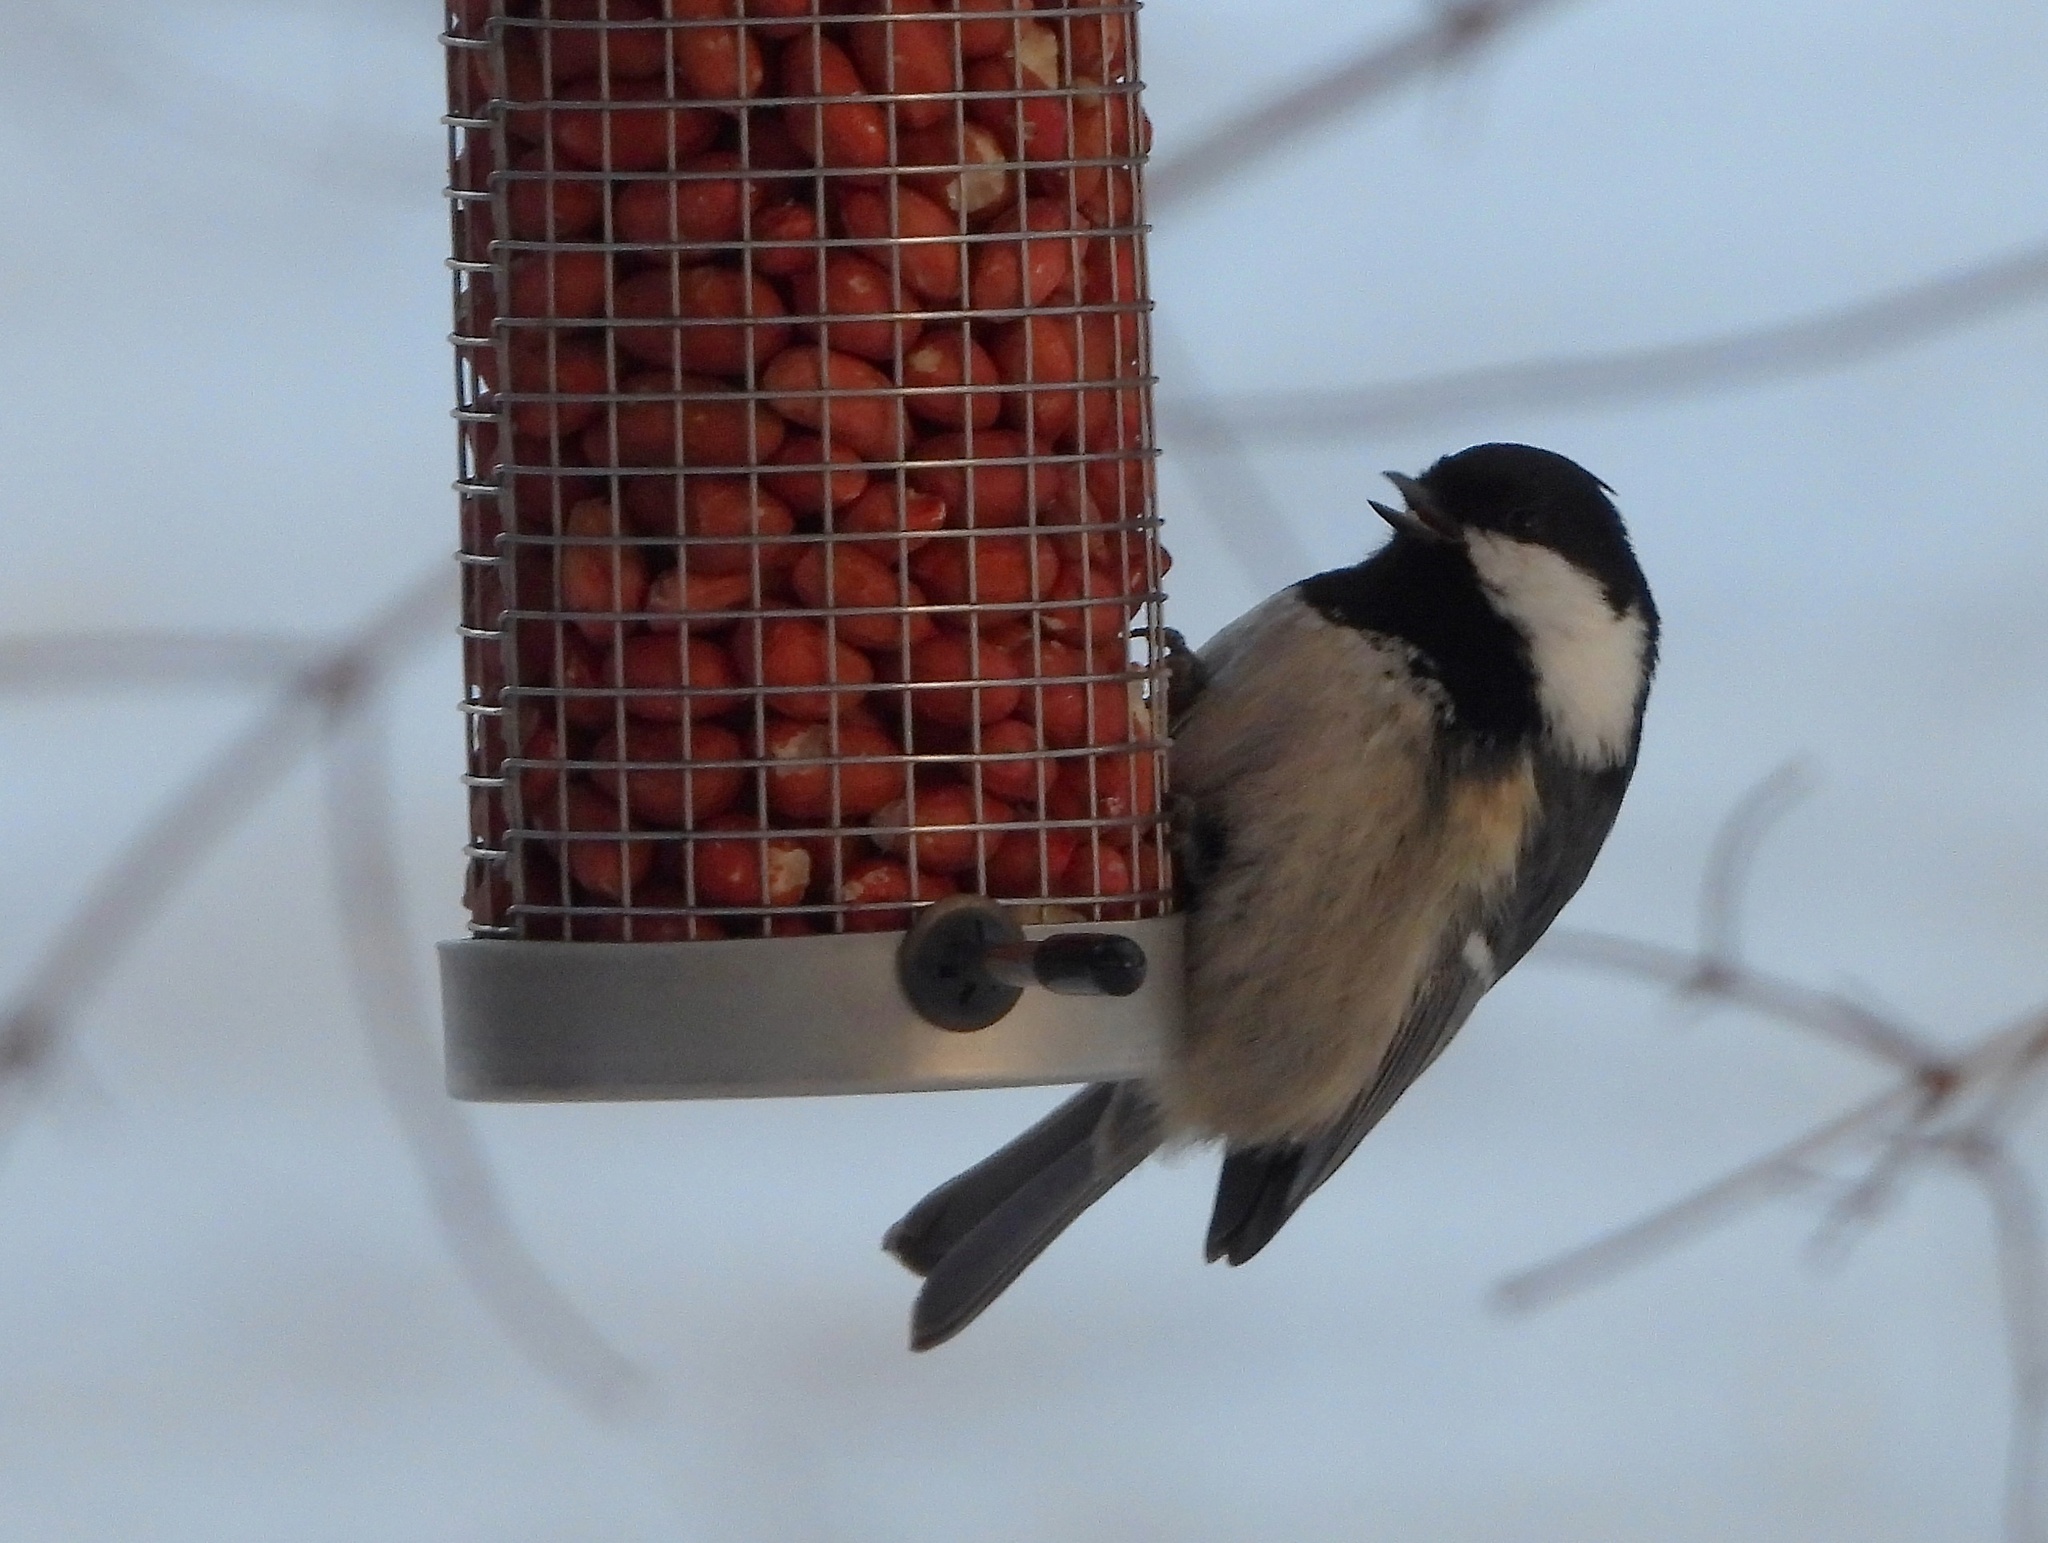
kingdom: Animalia
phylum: Chordata
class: Aves
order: Passeriformes
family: Paridae
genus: Periparus
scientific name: Periparus ater
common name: Coal tit
